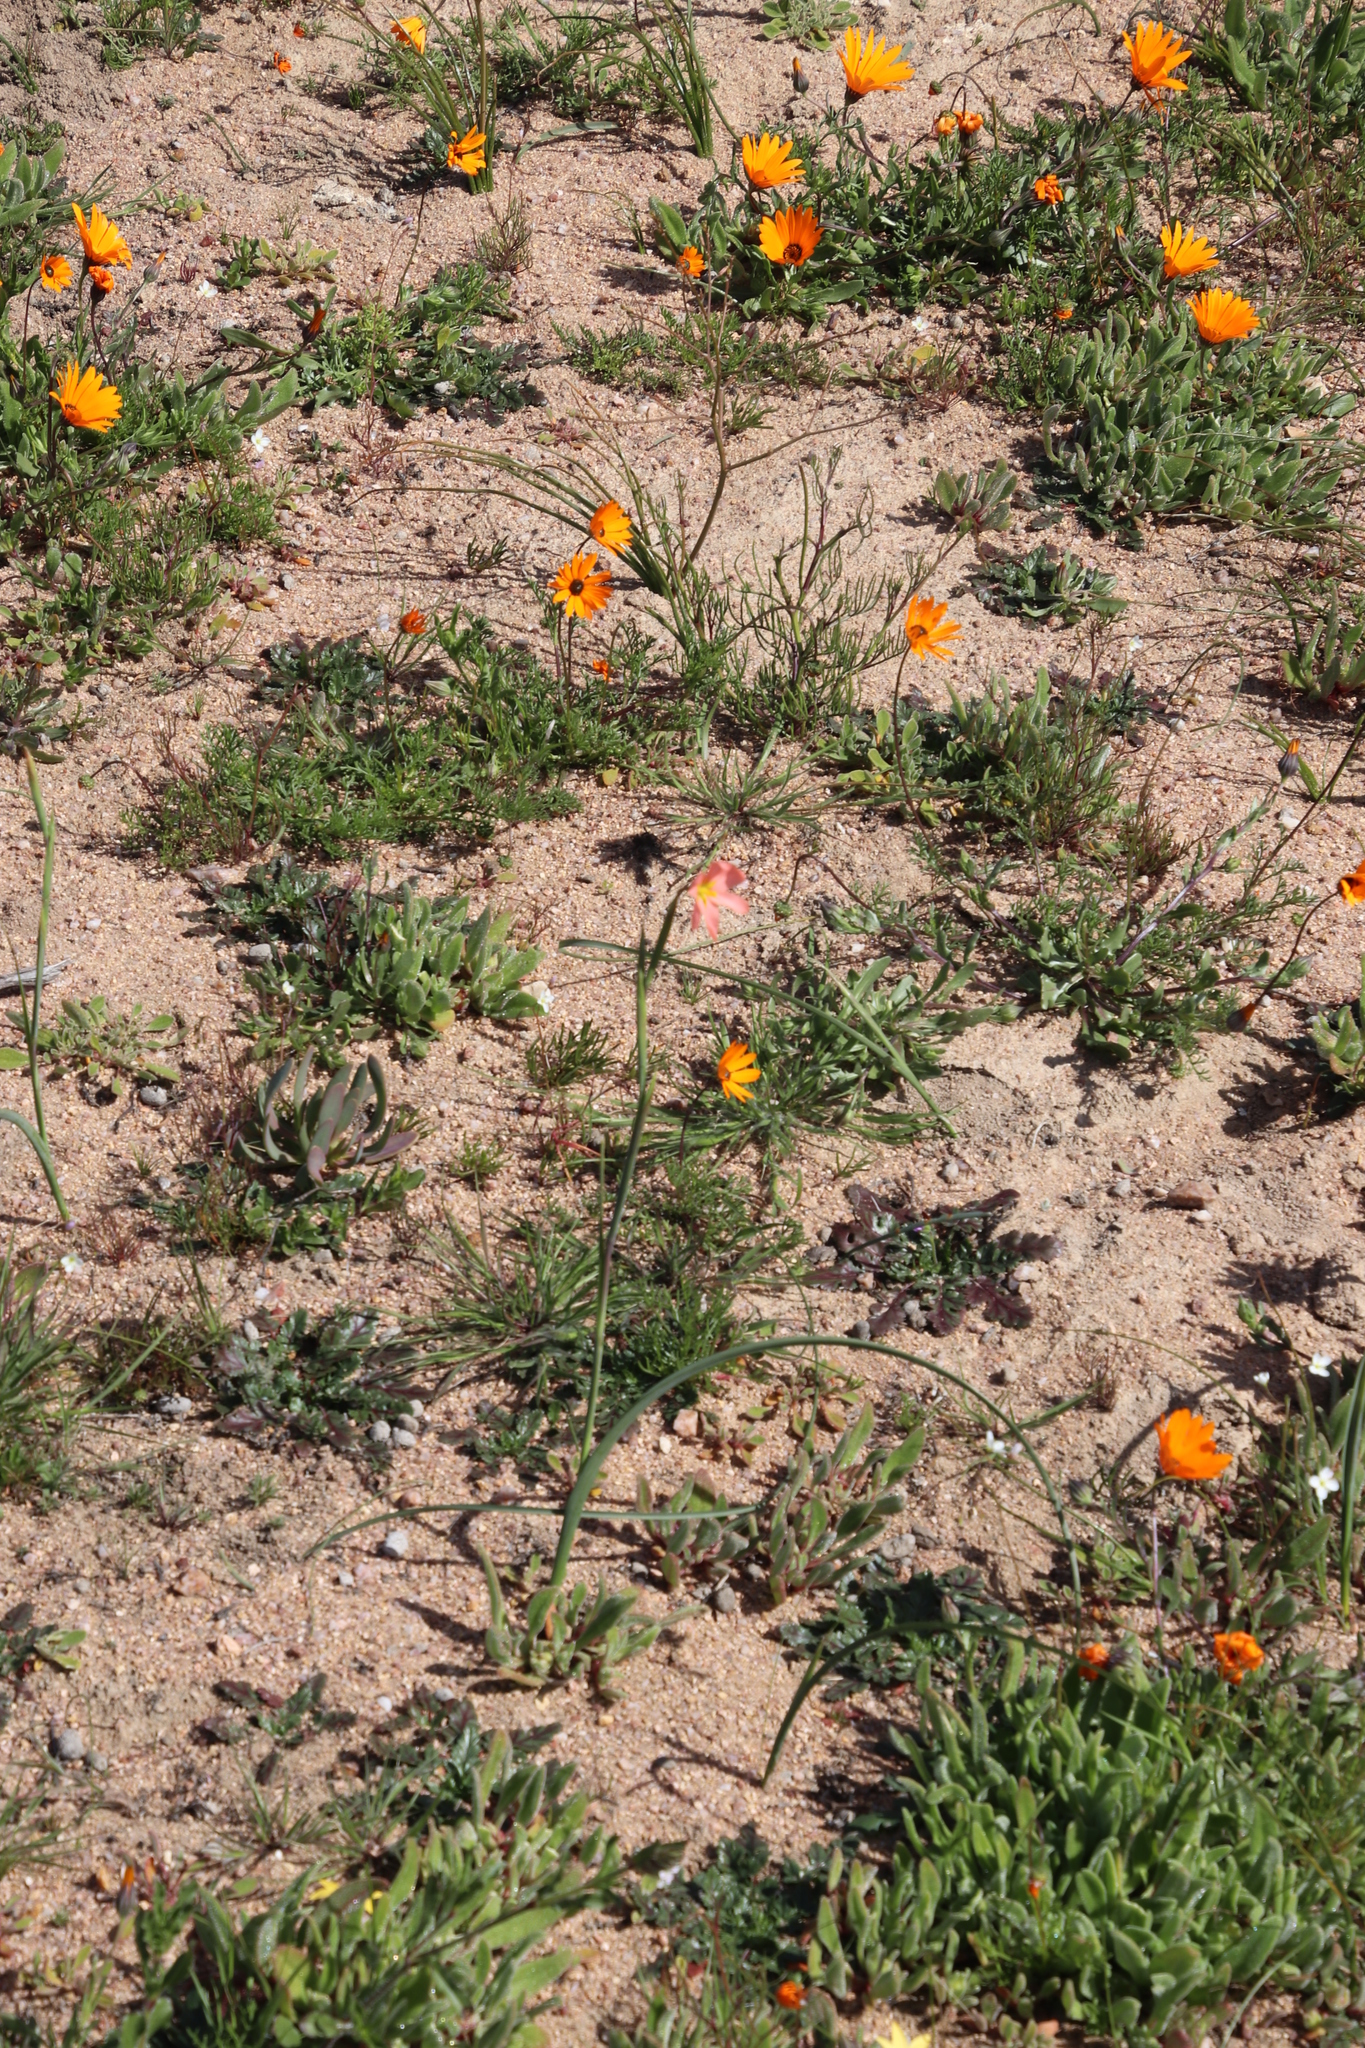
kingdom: Plantae
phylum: Tracheophyta
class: Liliopsida
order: Asparagales
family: Iridaceae
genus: Moraea
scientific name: Moraea miniata
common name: Two-leaf cape-tulip
